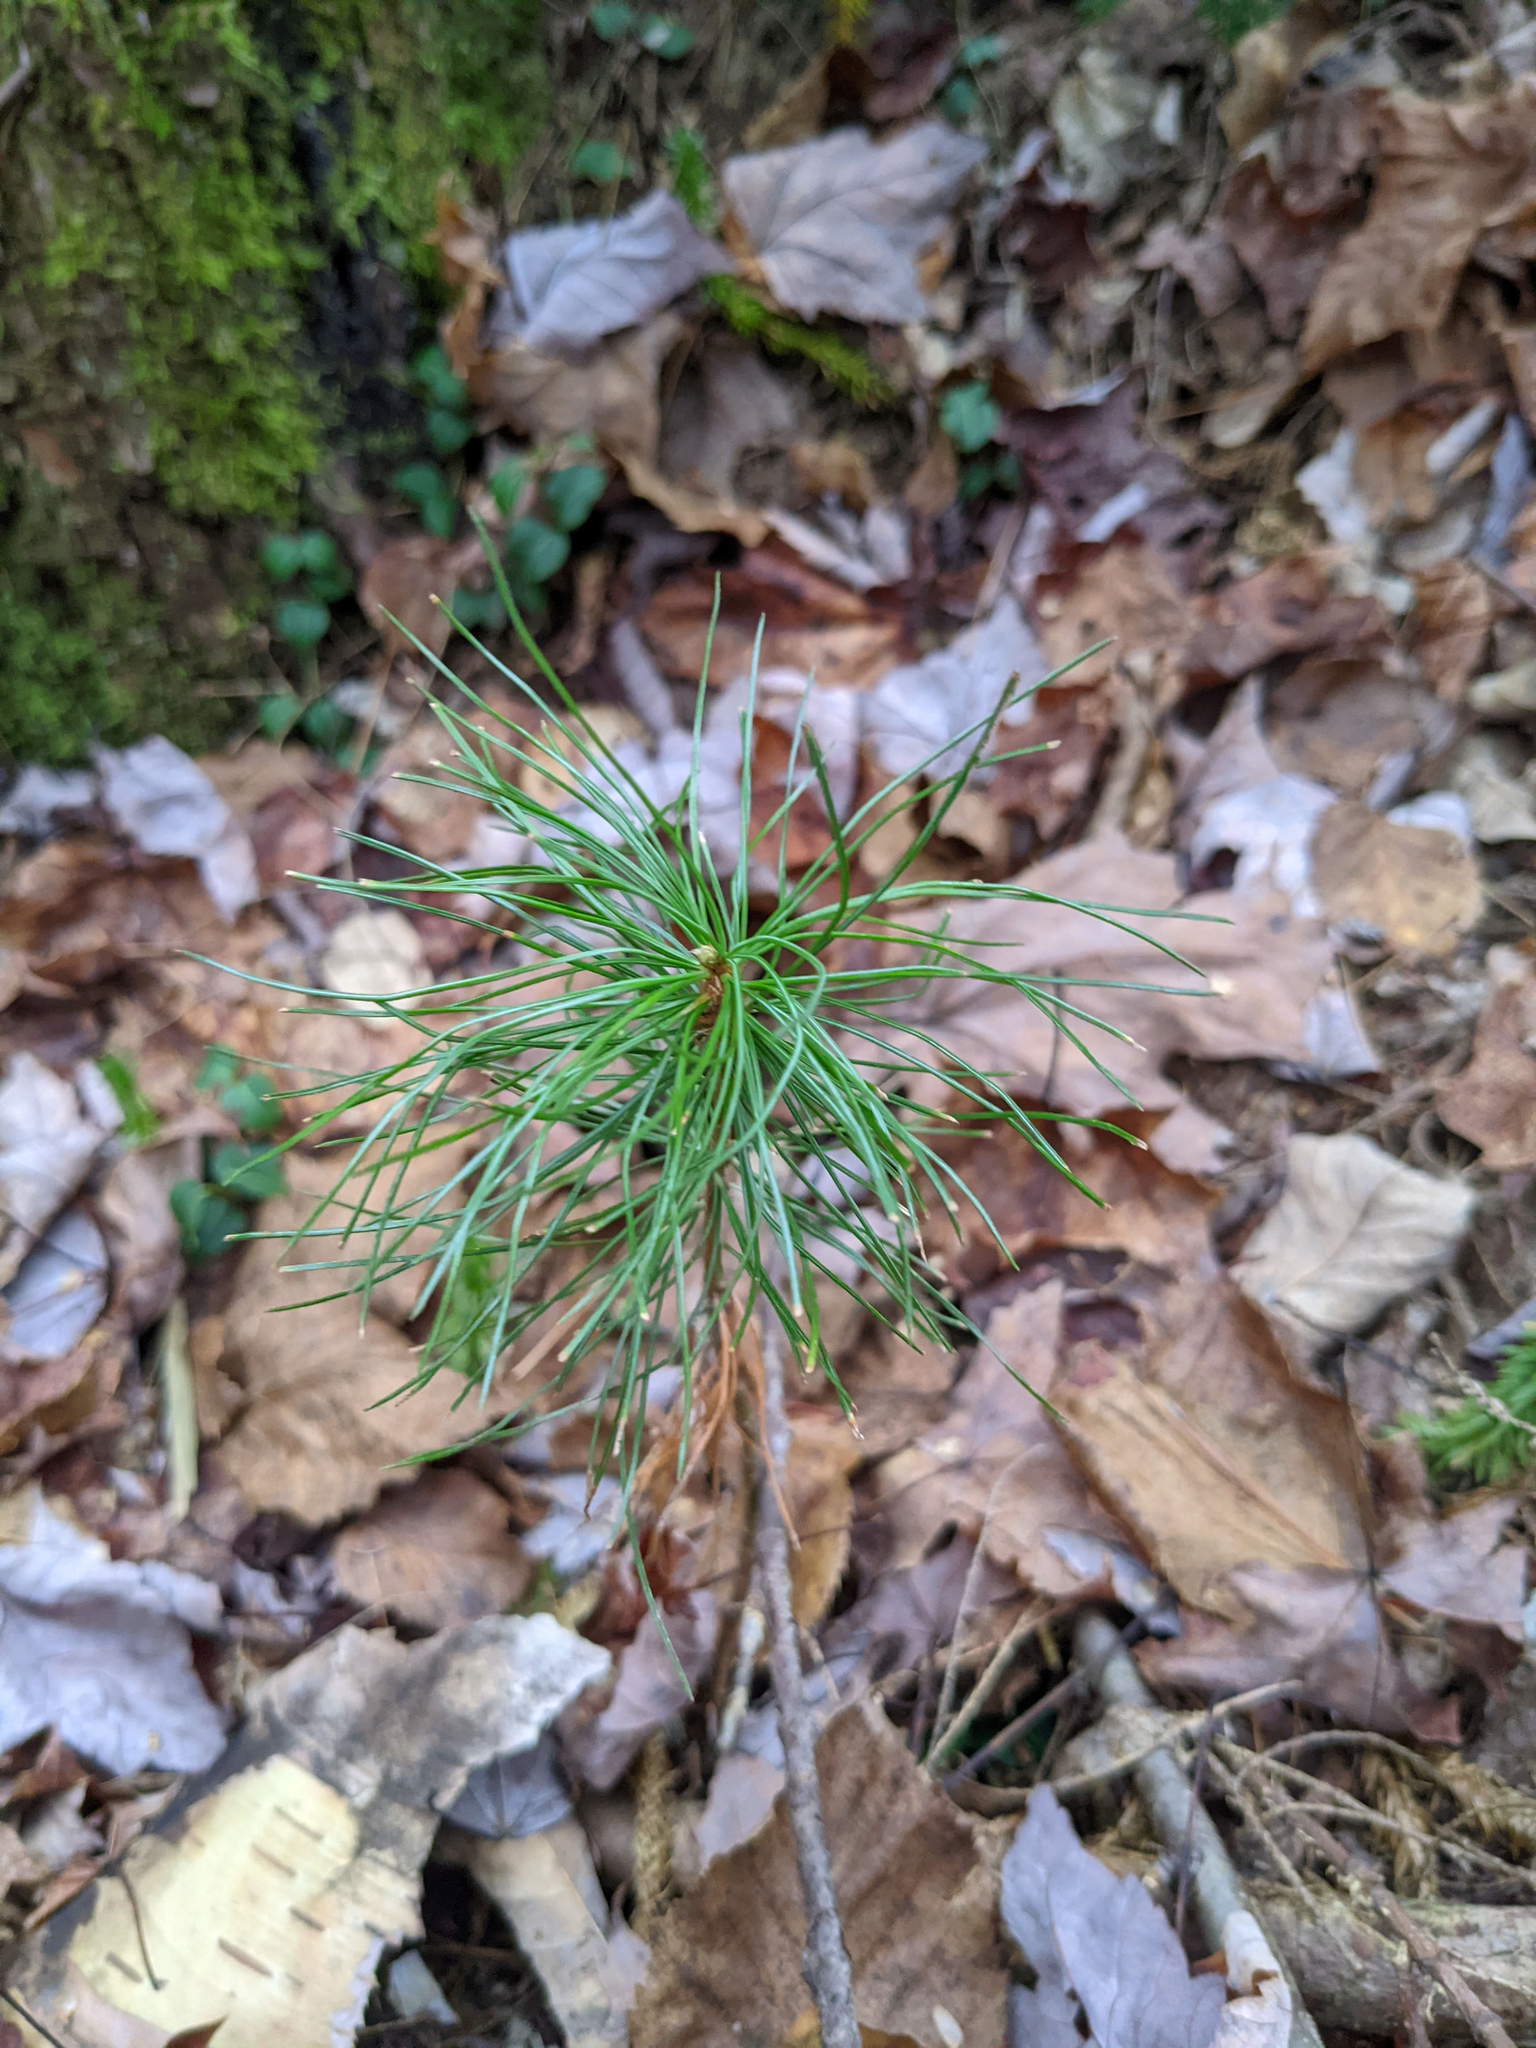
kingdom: Plantae
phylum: Tracheophyta
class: Pinopsida
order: Pinales
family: Pinaceae
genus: Pinus
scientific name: Pinus strobus
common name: Weymouth pine
